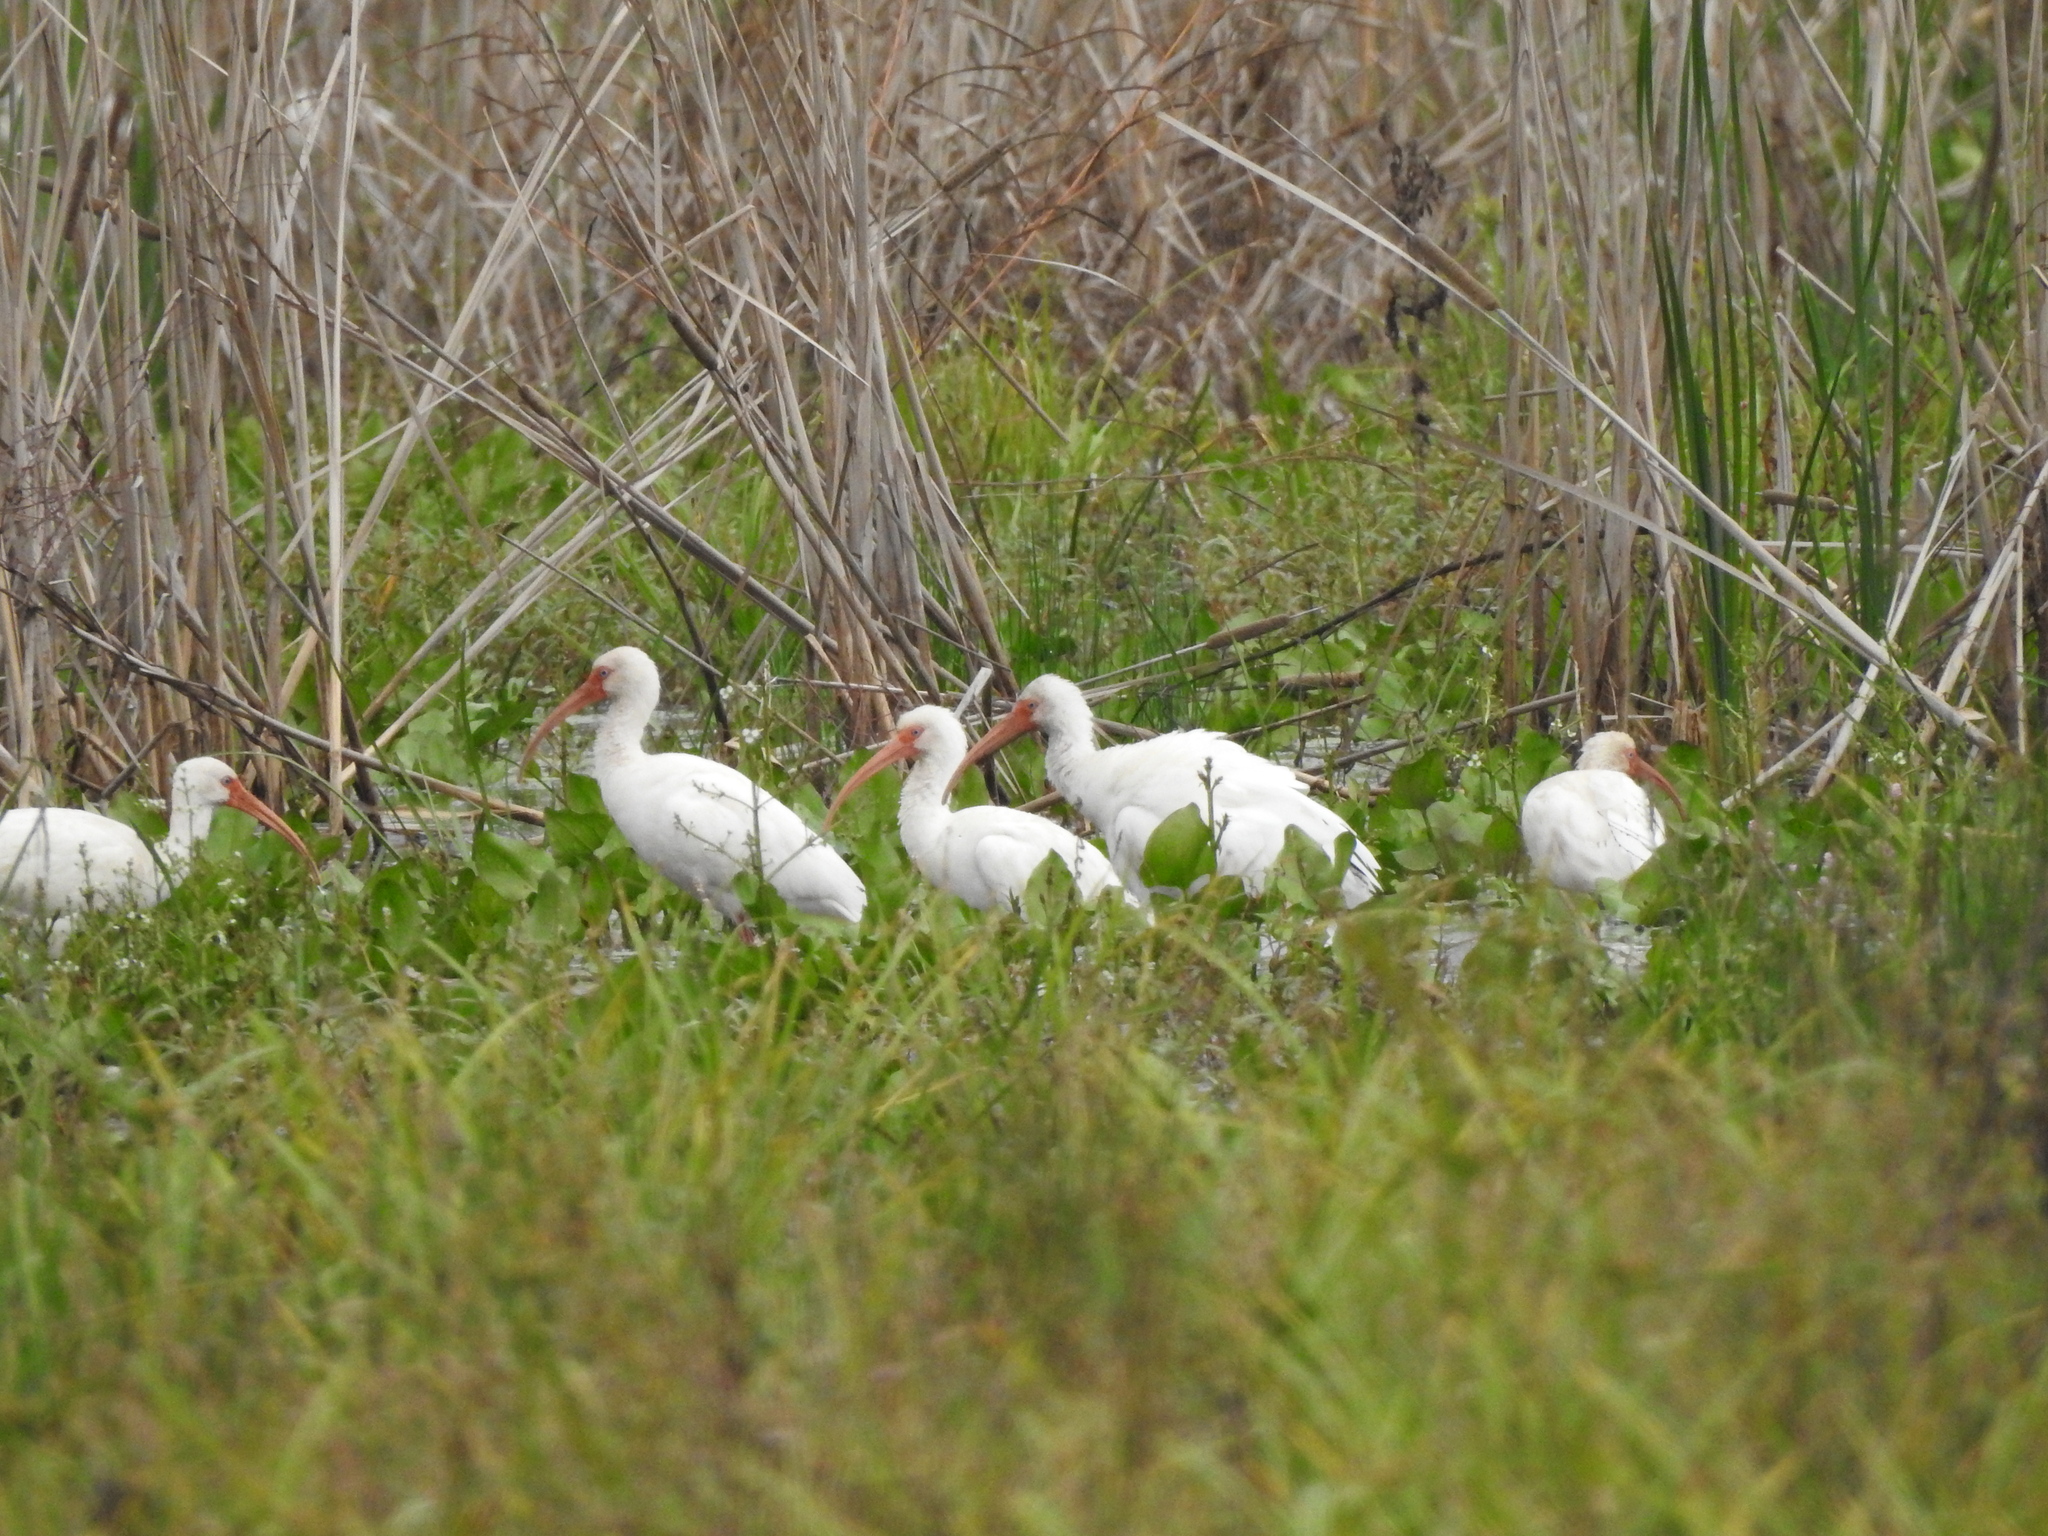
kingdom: Animalia
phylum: Chordata
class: Aves
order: Pelecaniformes
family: Threskiornithidae
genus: Eudocimus
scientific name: Eudocimus albus
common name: White ibis
